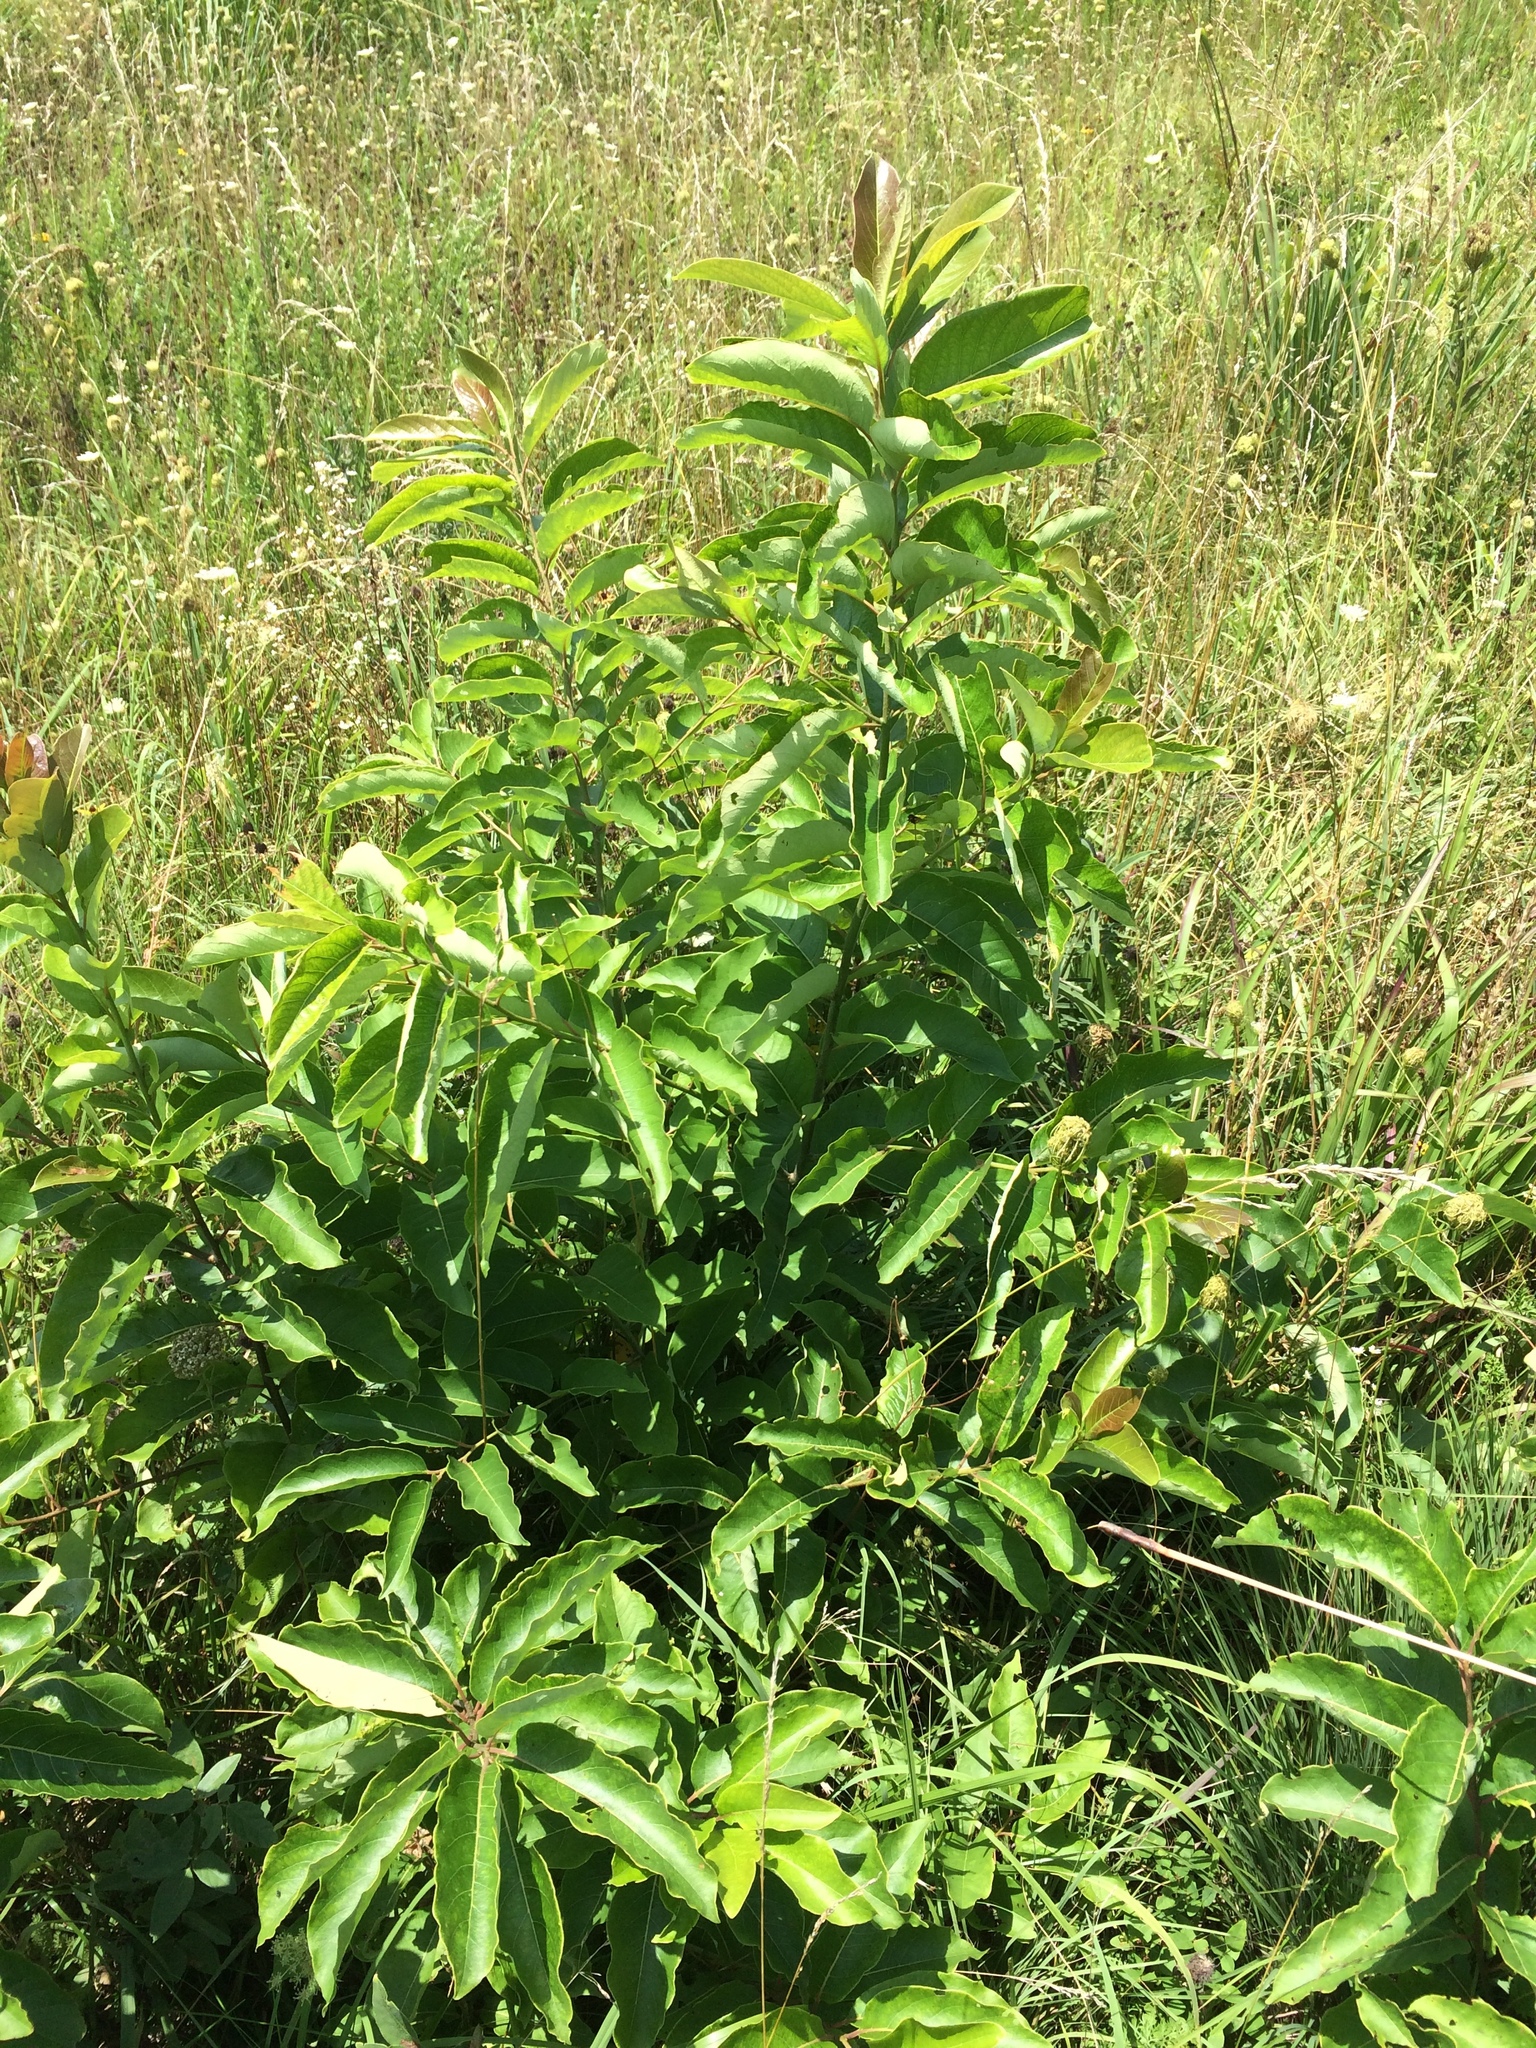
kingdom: Plantae
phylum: Tracheophyta
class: Magnoliopsida
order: Ericales
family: Ebenaceae
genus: Diospyros
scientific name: Diospyros virginiana
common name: Persimmon
